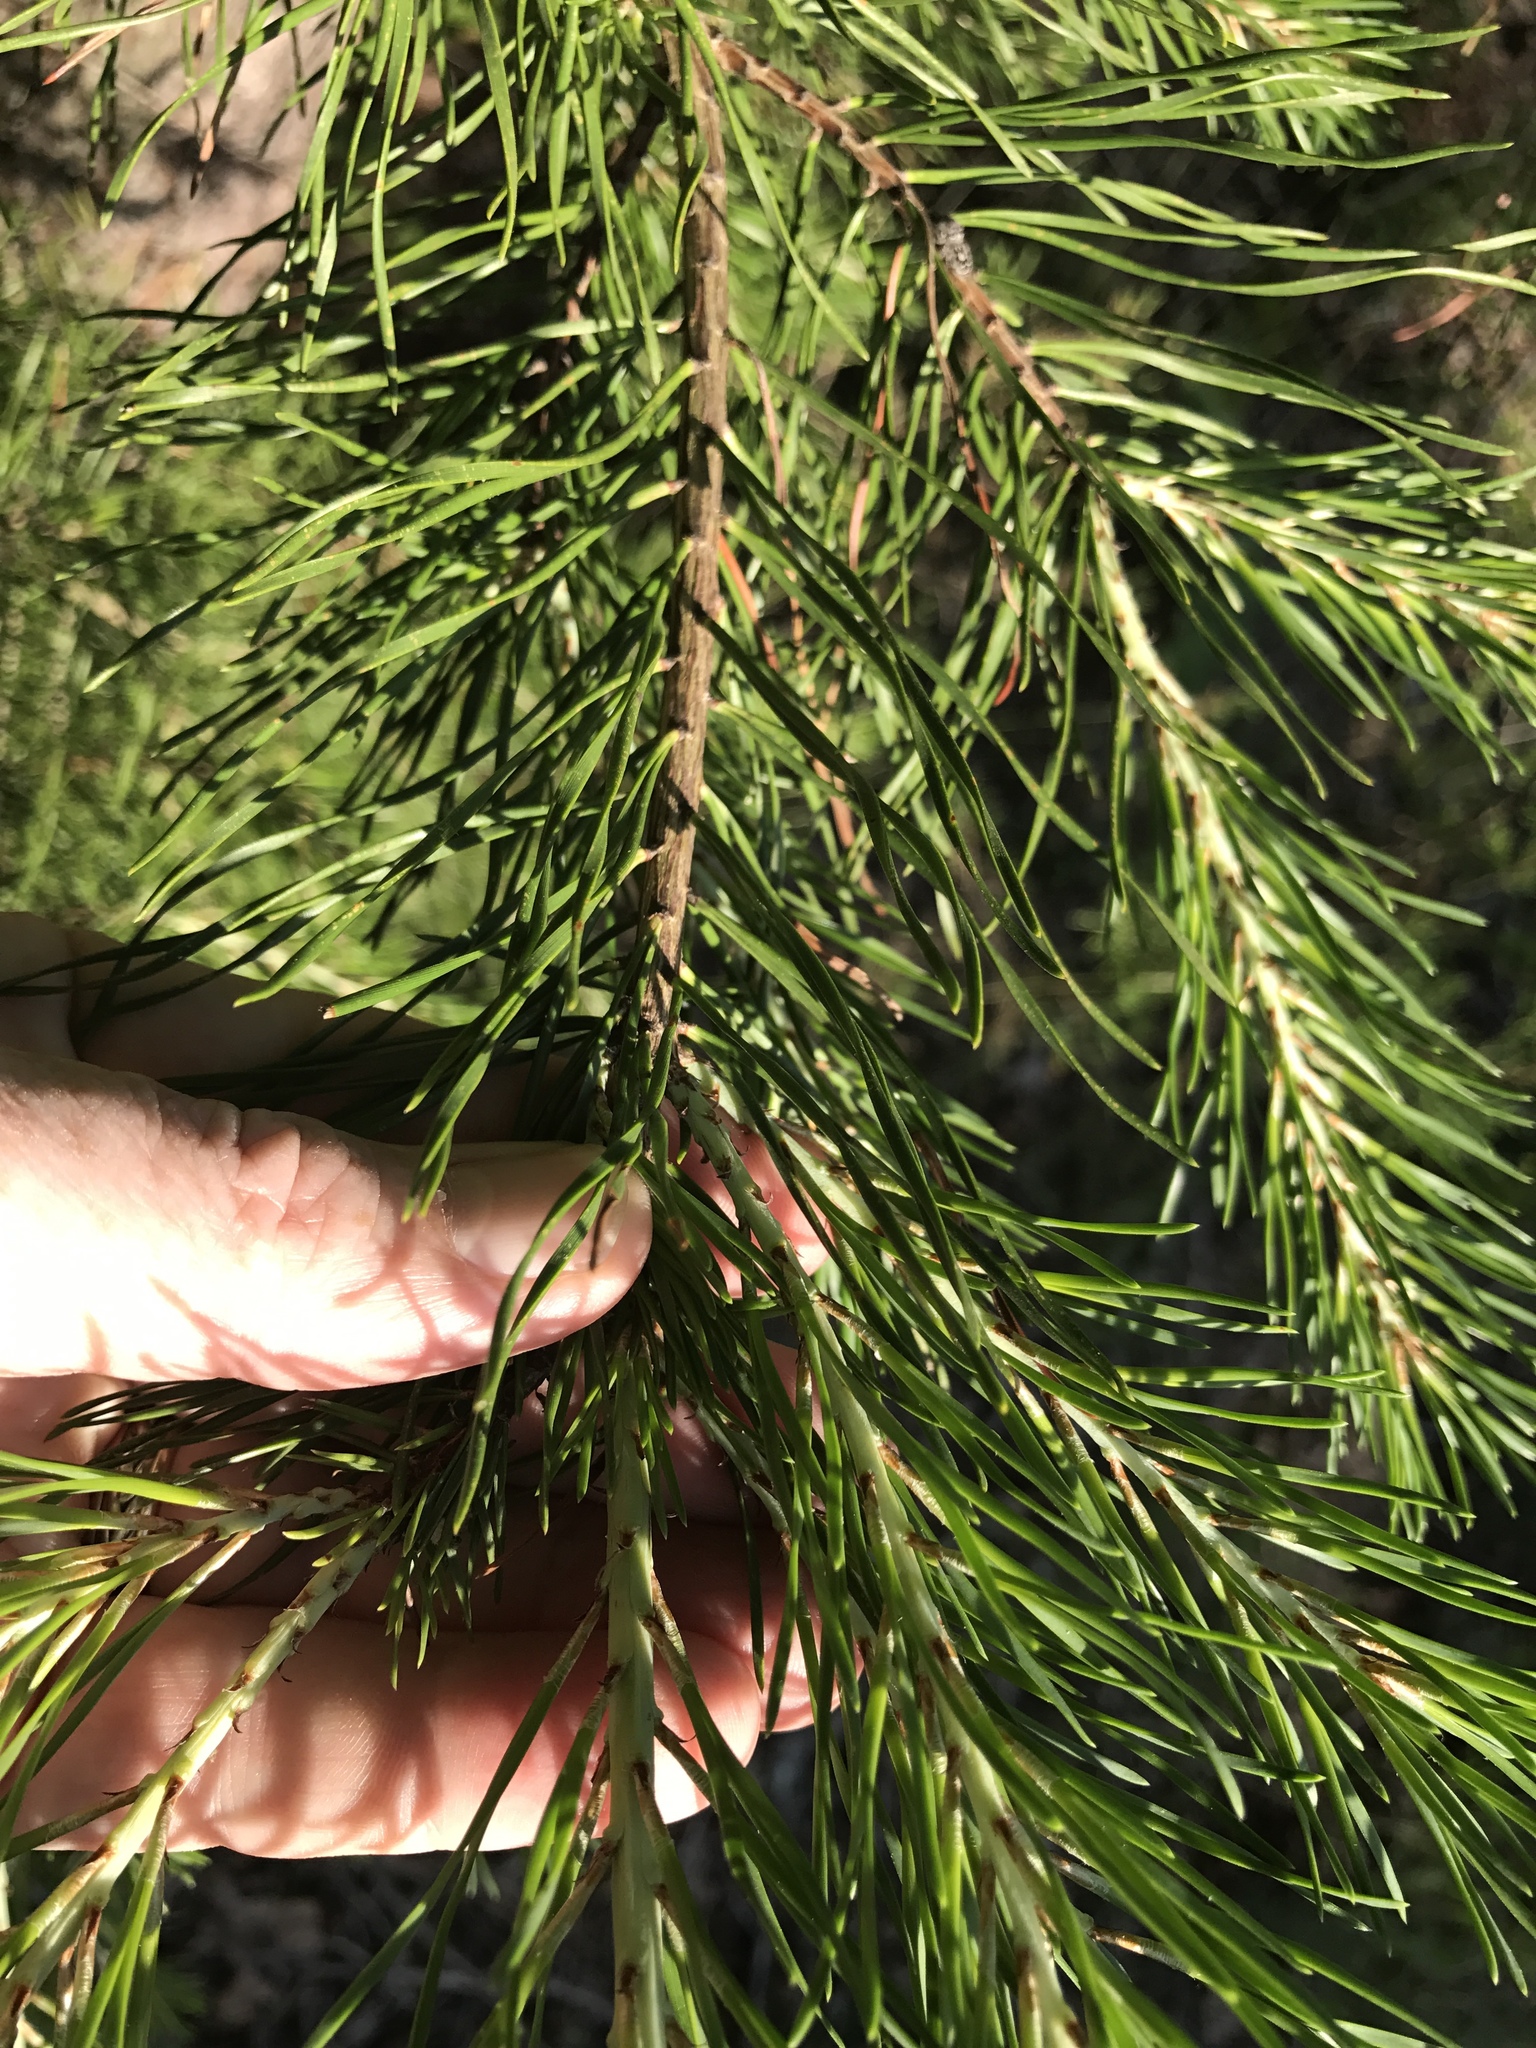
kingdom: Plantae
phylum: Tracheophyta
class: Pinopsida
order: Pinales
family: Pinaceae
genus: Pinus
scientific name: Pinus virginiana
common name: Scrub pine
